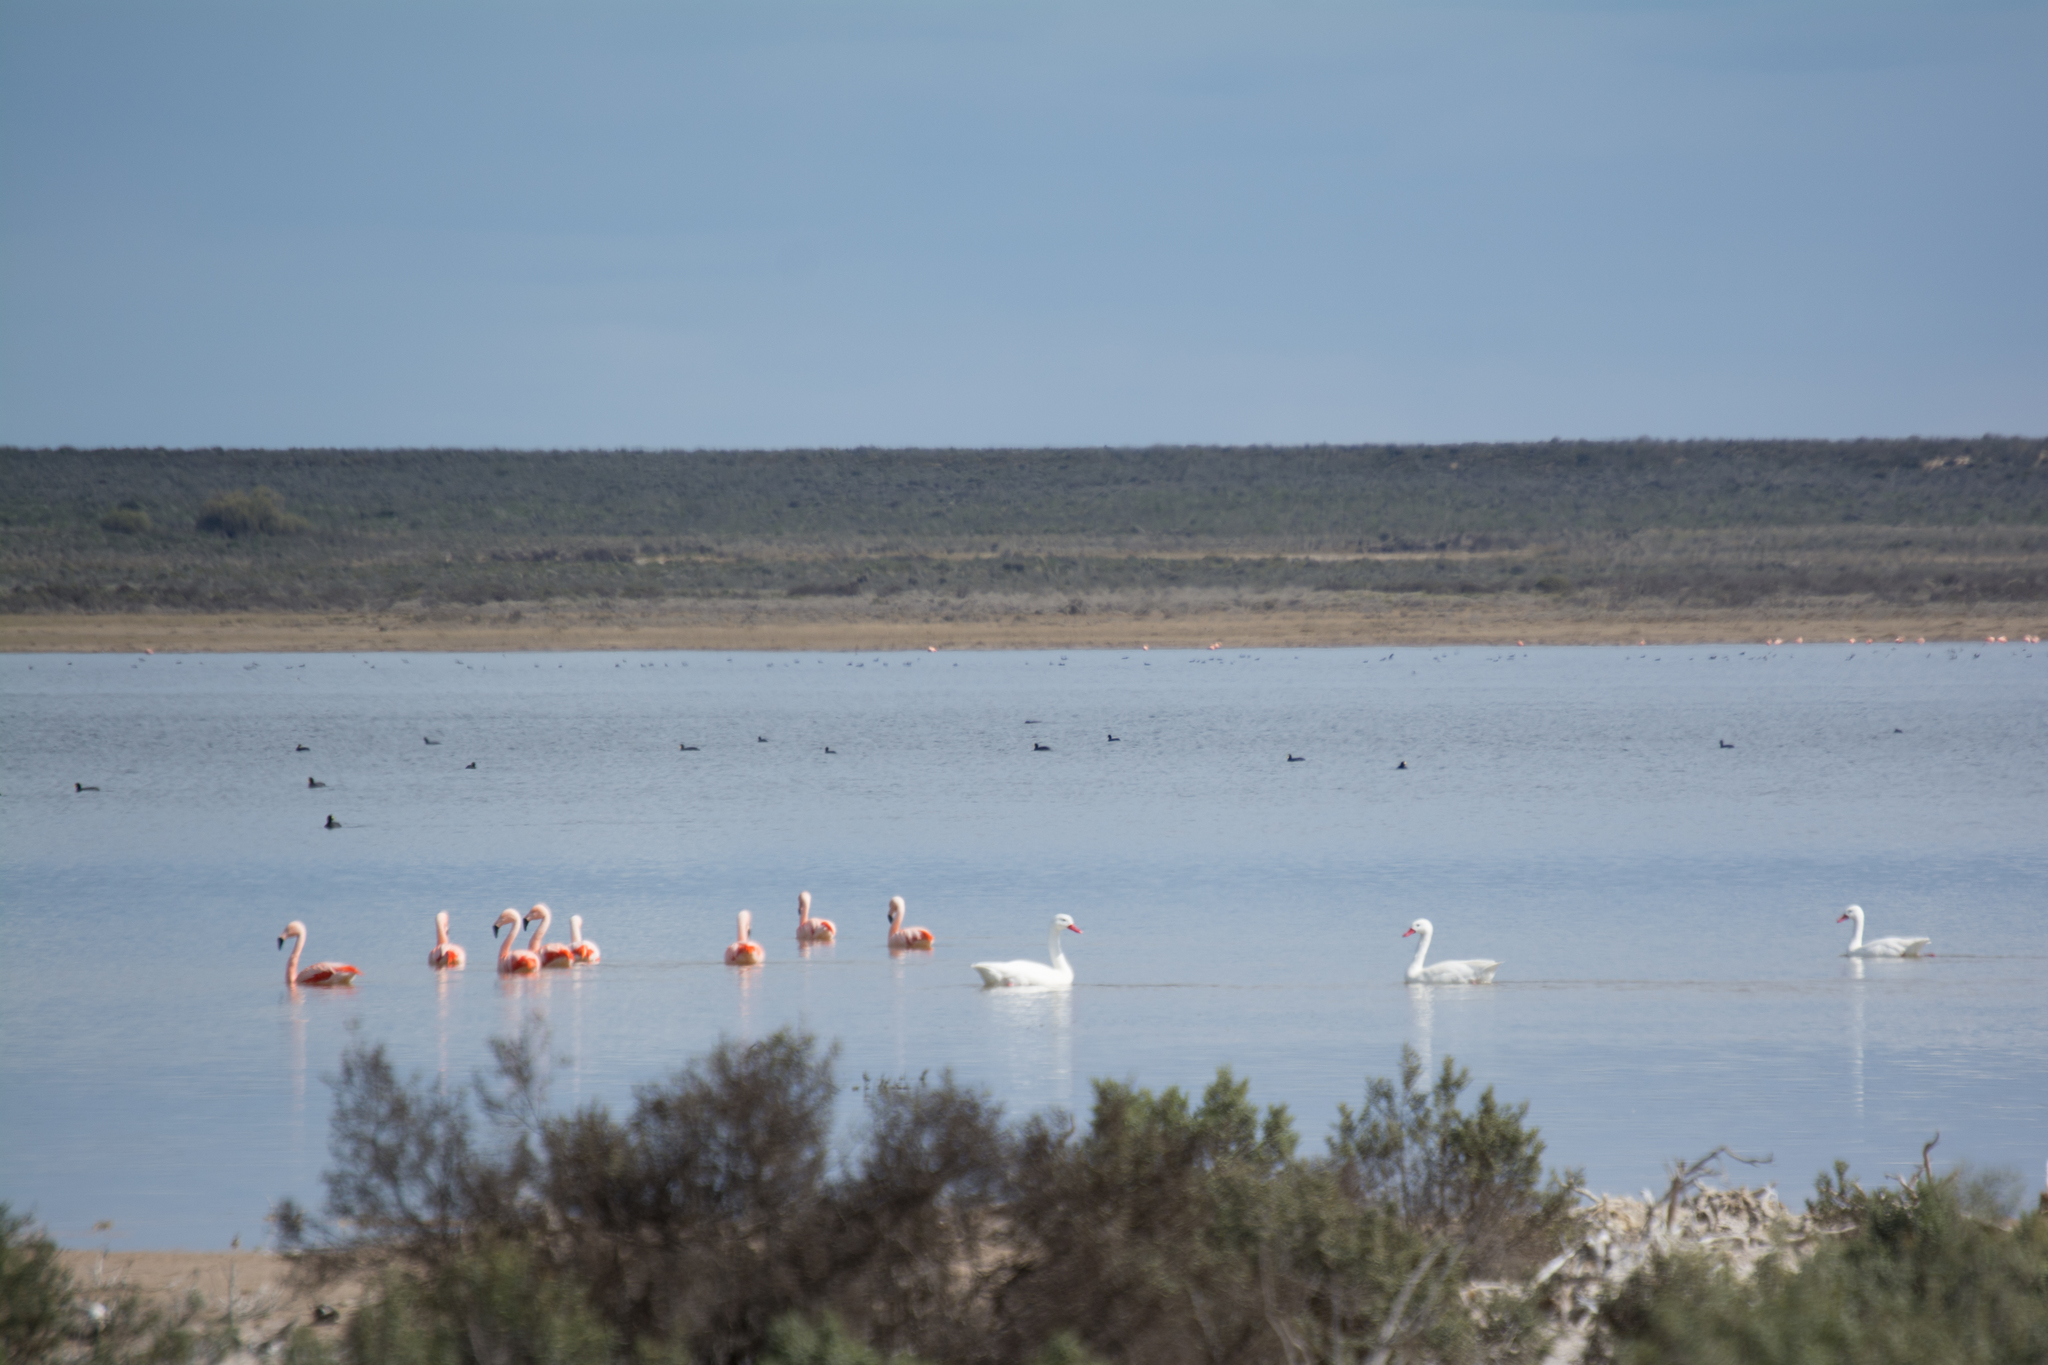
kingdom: Animalia
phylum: Chordata
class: Aves
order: Phoenicopteriformes
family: Phoenicopteridae
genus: Phoenicopterus
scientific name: Phoenicopterus chilensis
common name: Chilean flamingo
